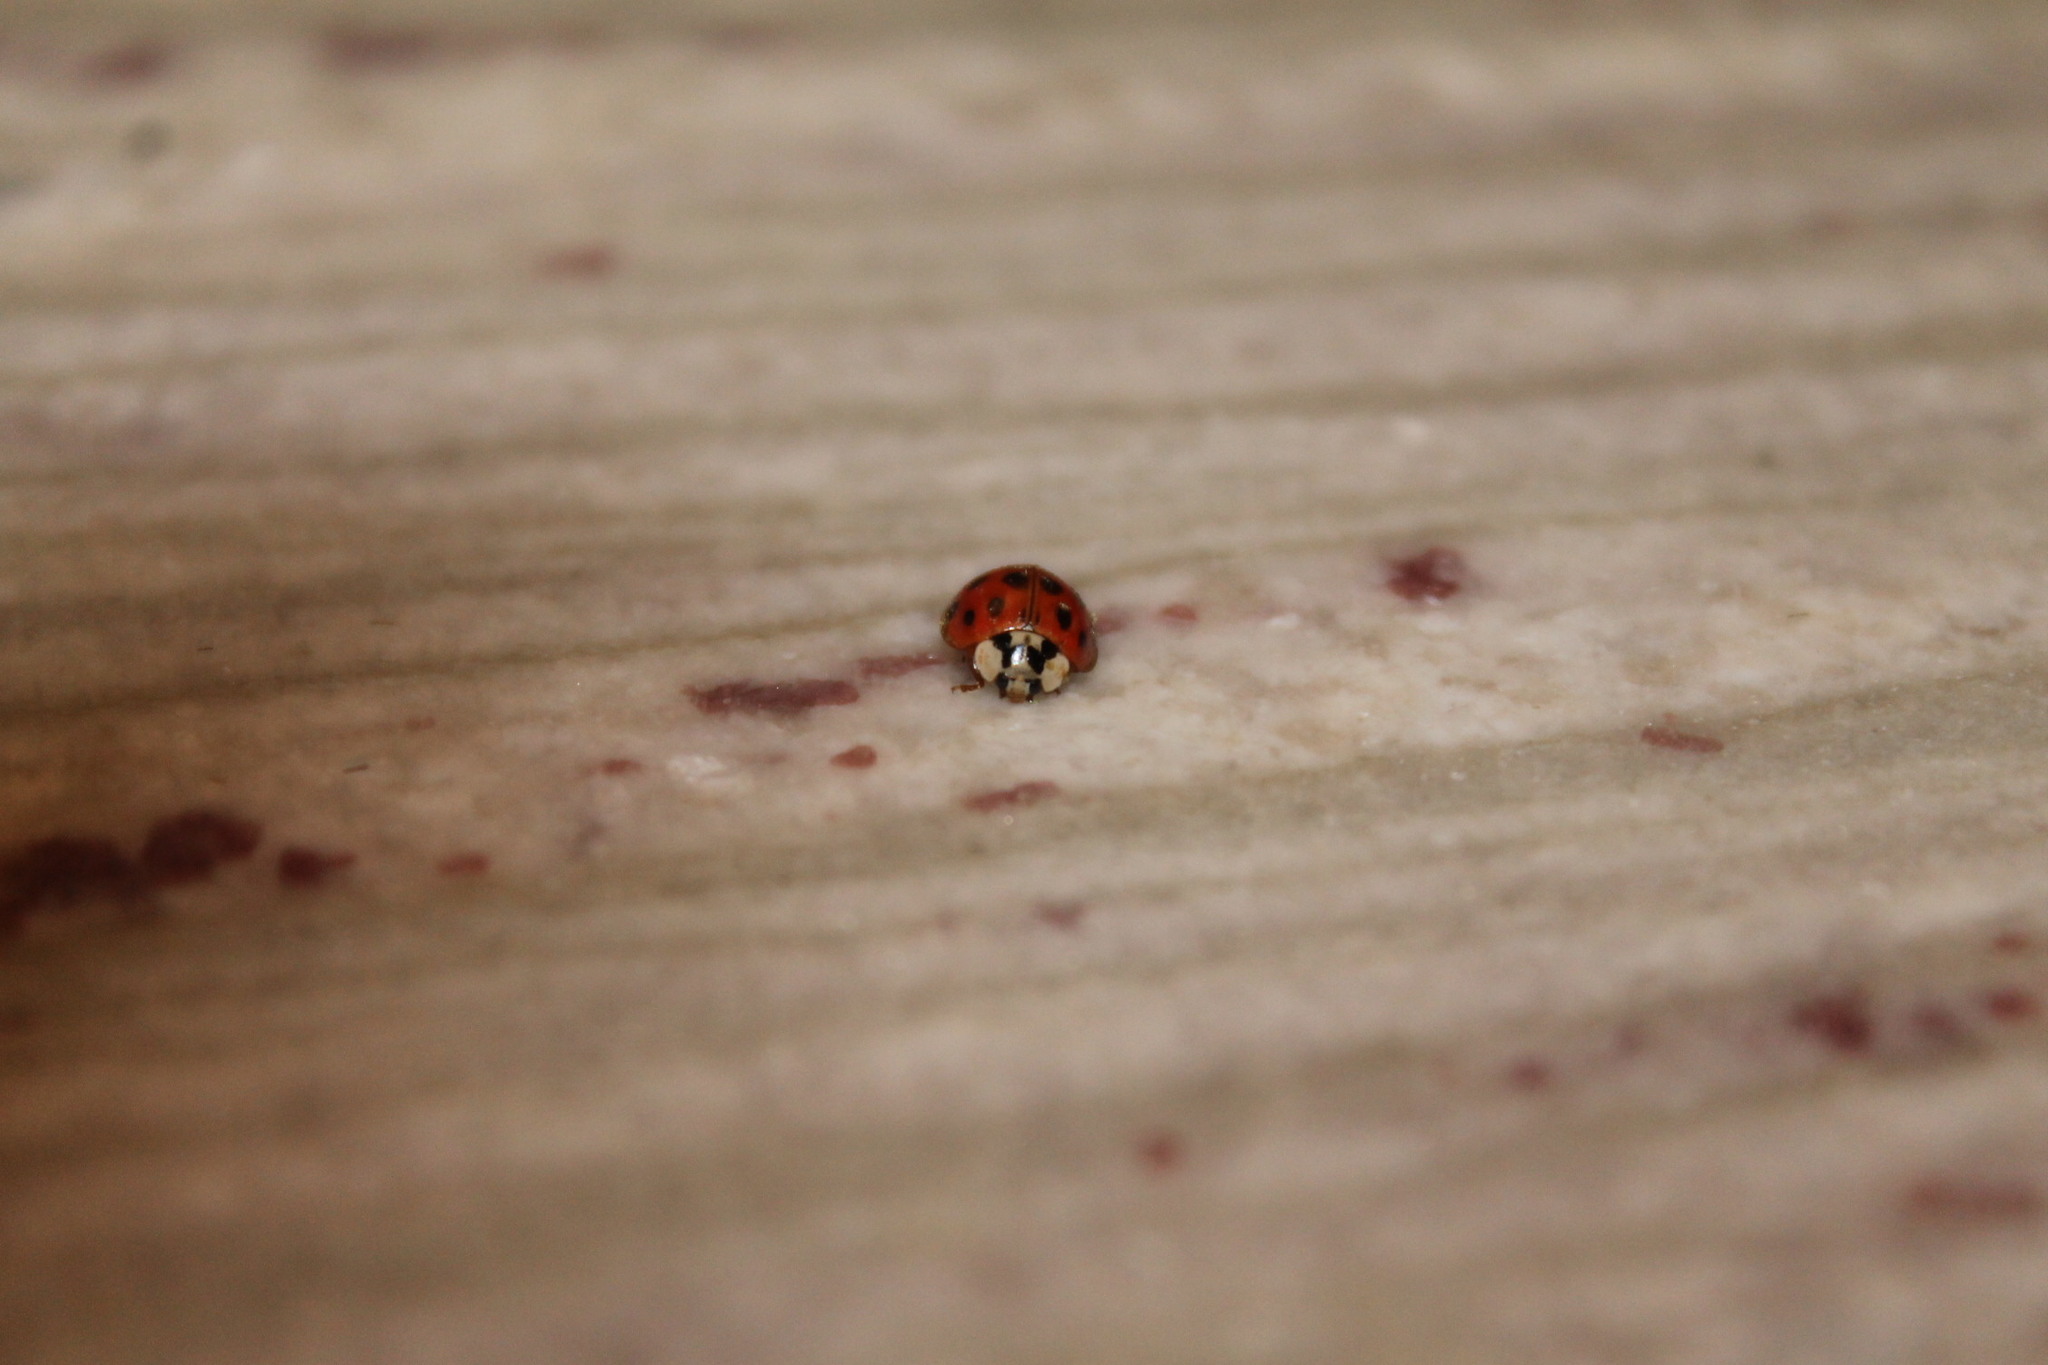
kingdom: Animalia
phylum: Arthropoda
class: Insecta
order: Coleoptera
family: Coccinellidae
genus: Harmonia
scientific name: Harmonia axyridis
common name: Harlequin ladybird
